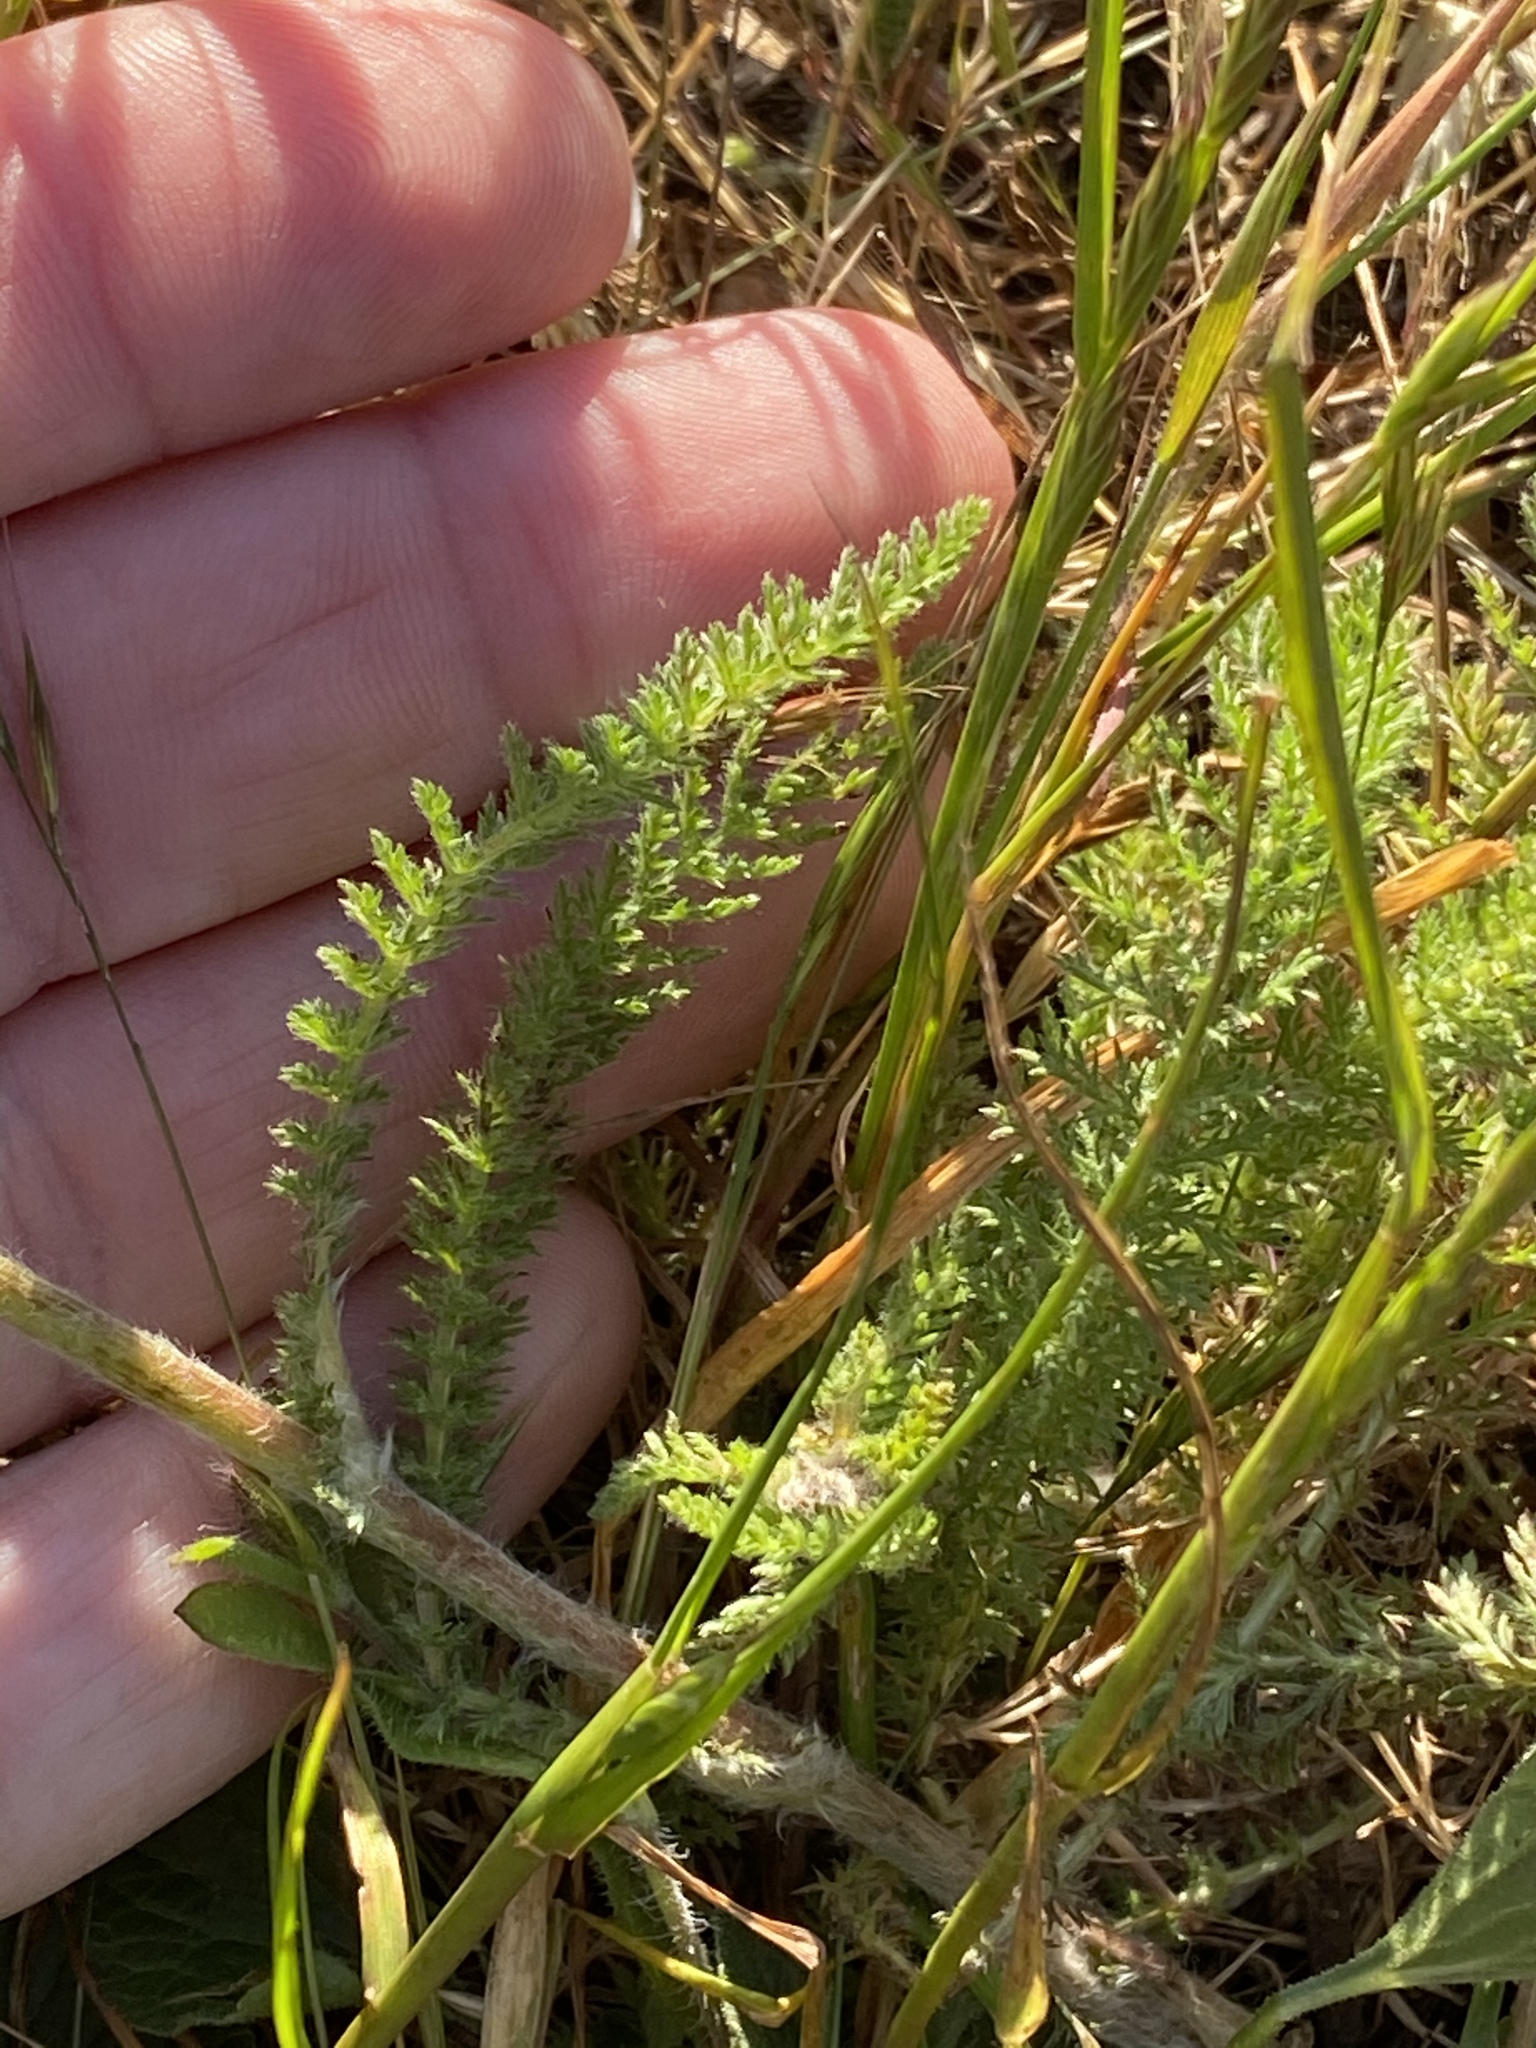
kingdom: Plantae
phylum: Tracheophyta
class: Magnoliopsida
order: Asterales
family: Asteraceae
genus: Achillea
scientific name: Achillea millefolium
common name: Yarrow
